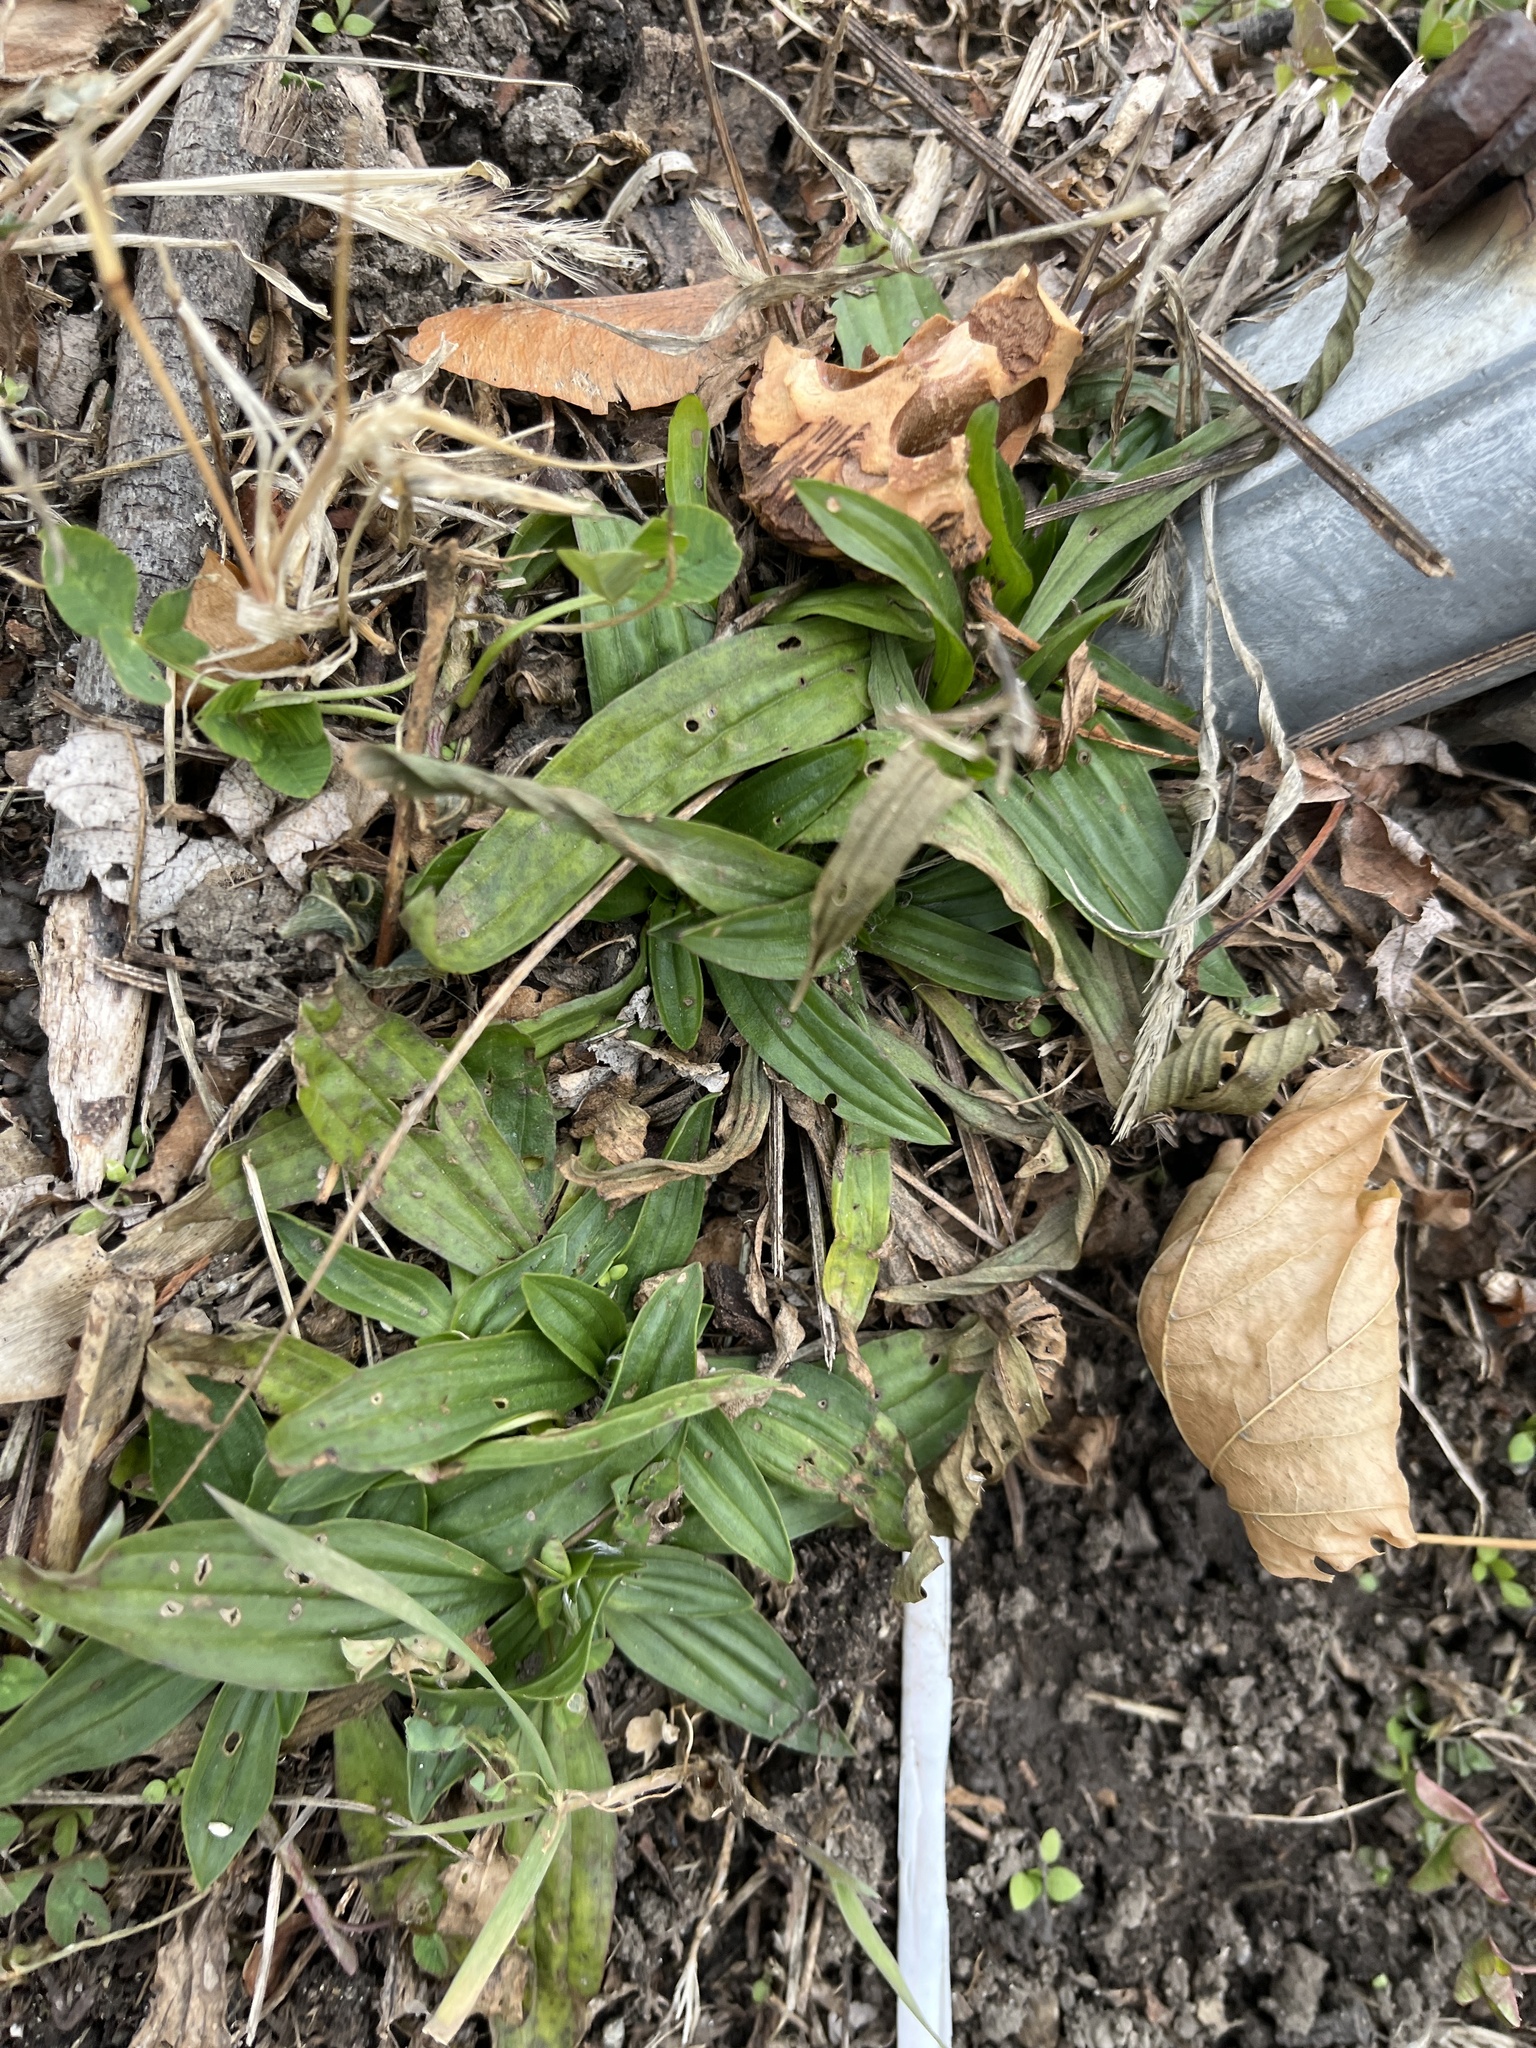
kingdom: Plantae
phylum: Tracheophyta
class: Magnoliopsida
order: Lamiales
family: Plantaginaceae
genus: Plantago
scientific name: Plantago lanceolata
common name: Ribwort plantain
